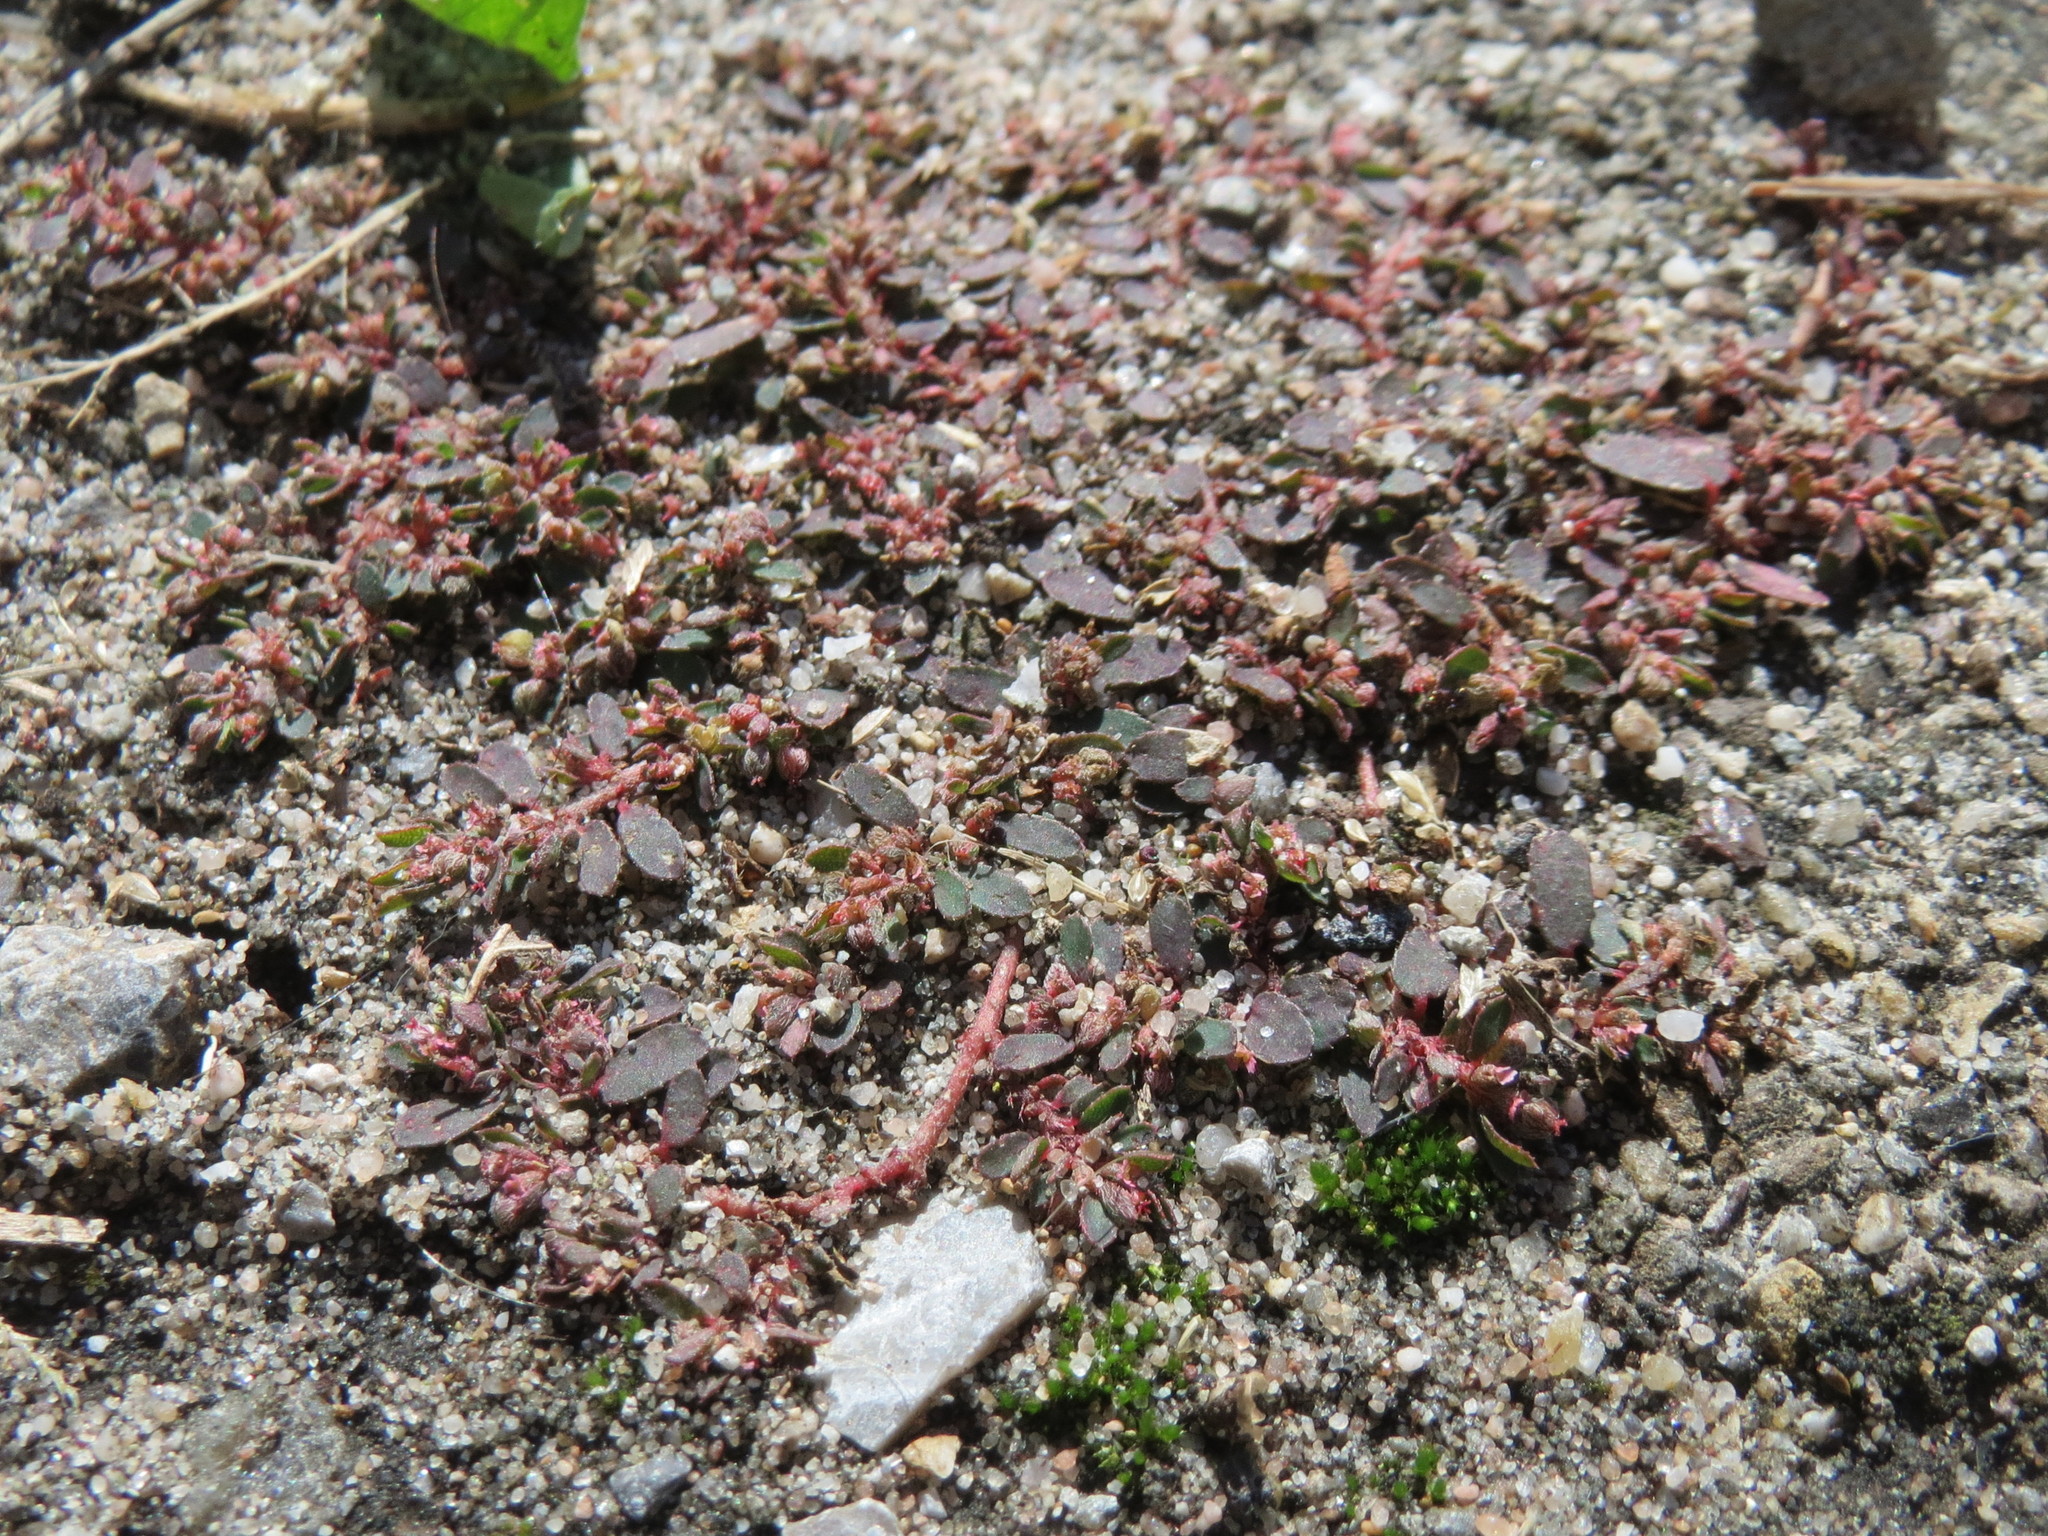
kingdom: Plantae
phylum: Tracheophyta
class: Magnoliopsida
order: Malpighiales
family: Euphorbiaceae
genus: Euphorbia
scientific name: Euphorbia maculata
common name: Spotted spurge
